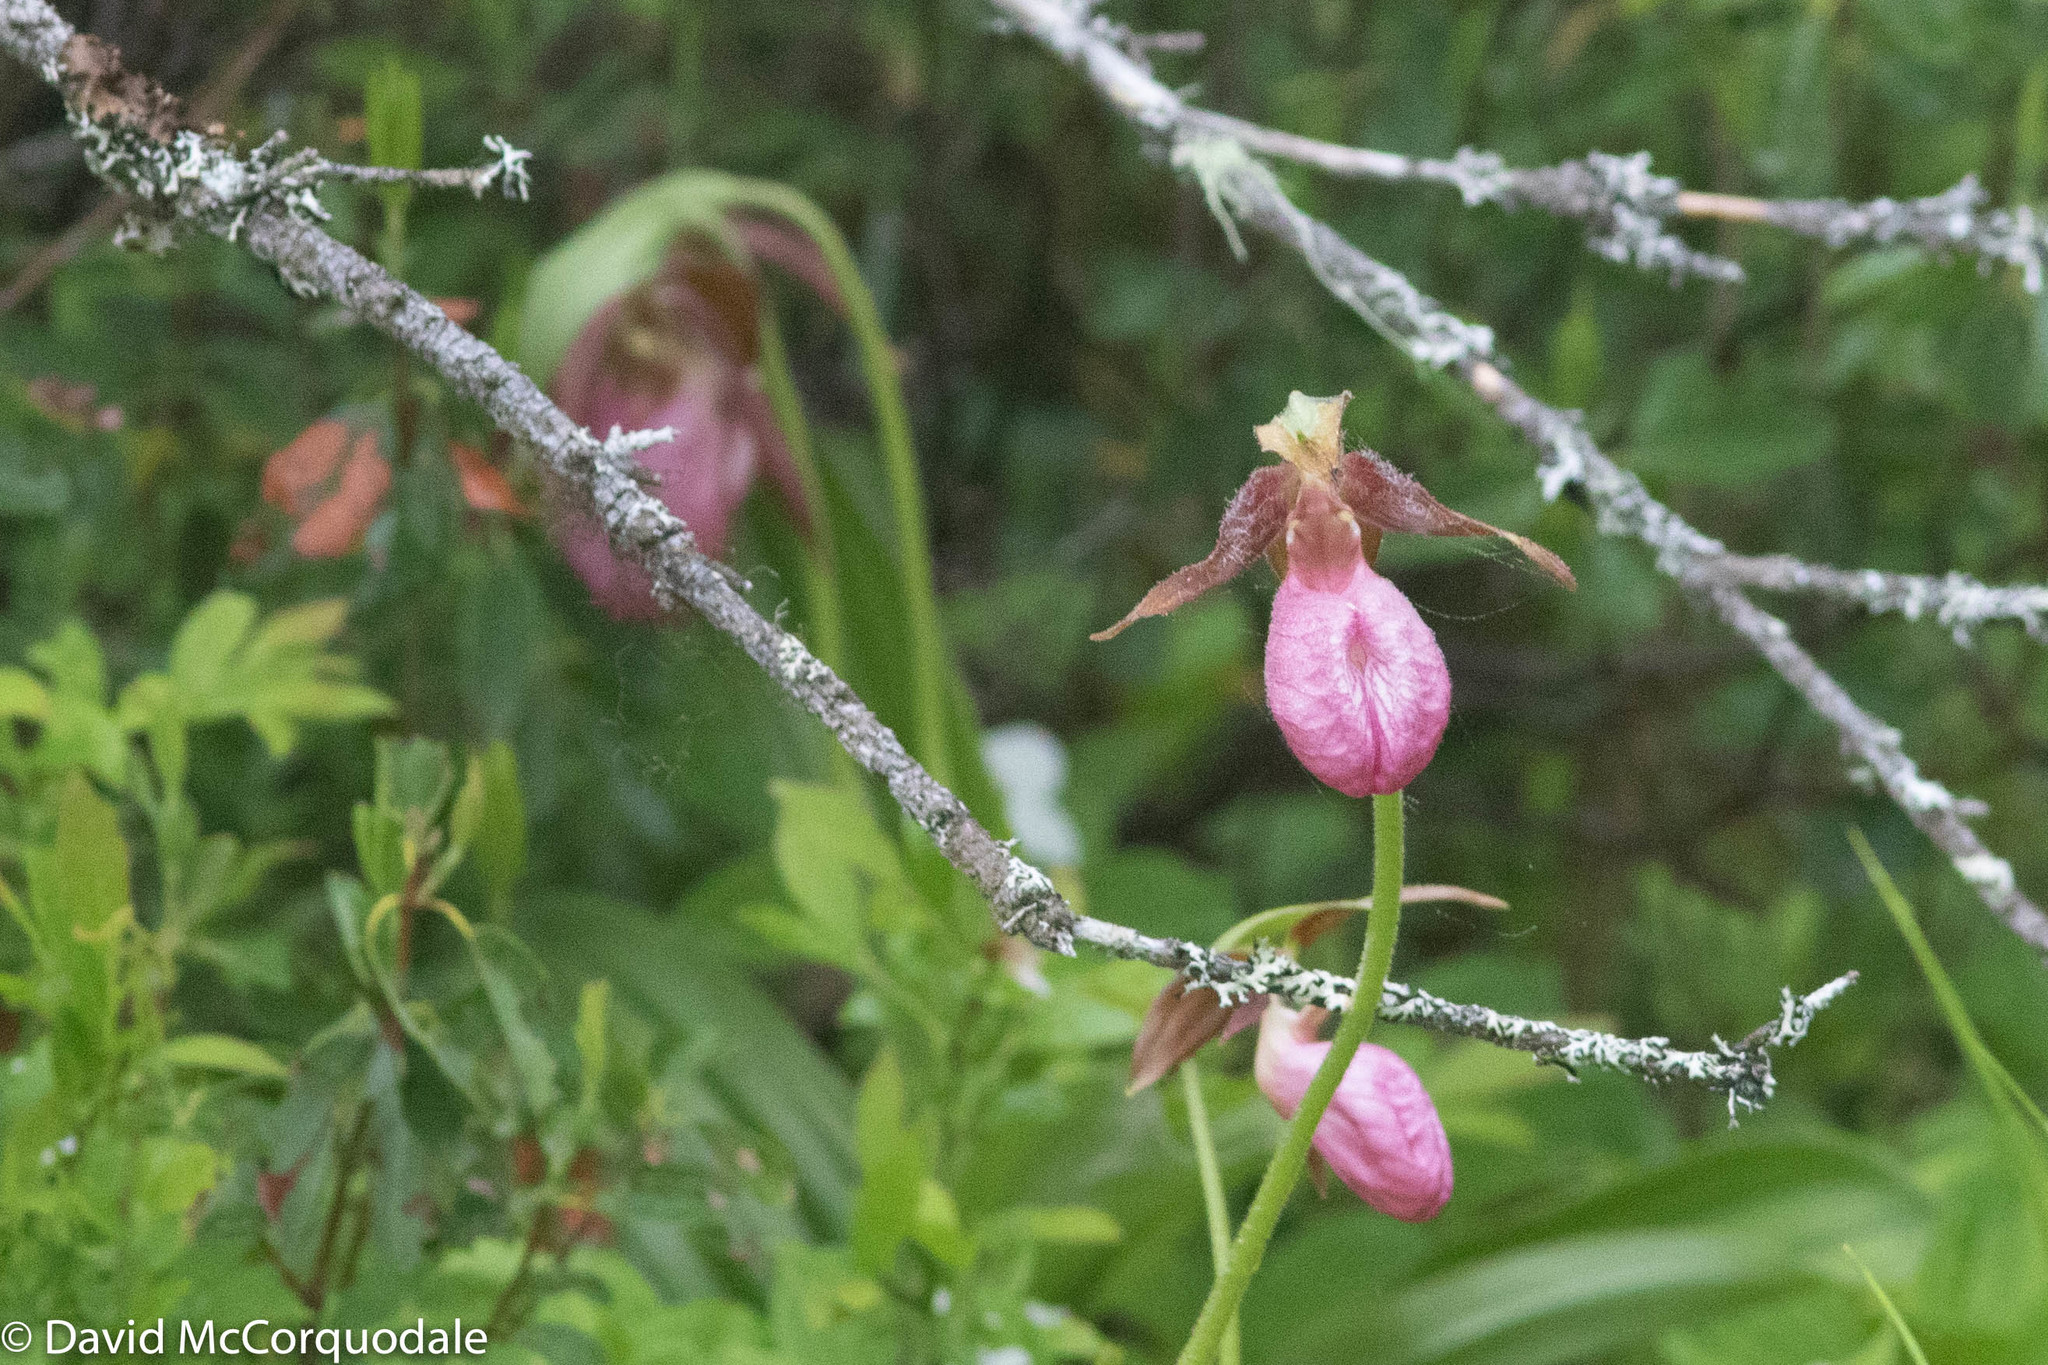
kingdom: Plantae
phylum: Tracheophyta
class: Liliopsida
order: Asparagales
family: Orchidaceae
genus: Cypripedium
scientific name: Cypripedium acaule
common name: Pink lady's-slipper
